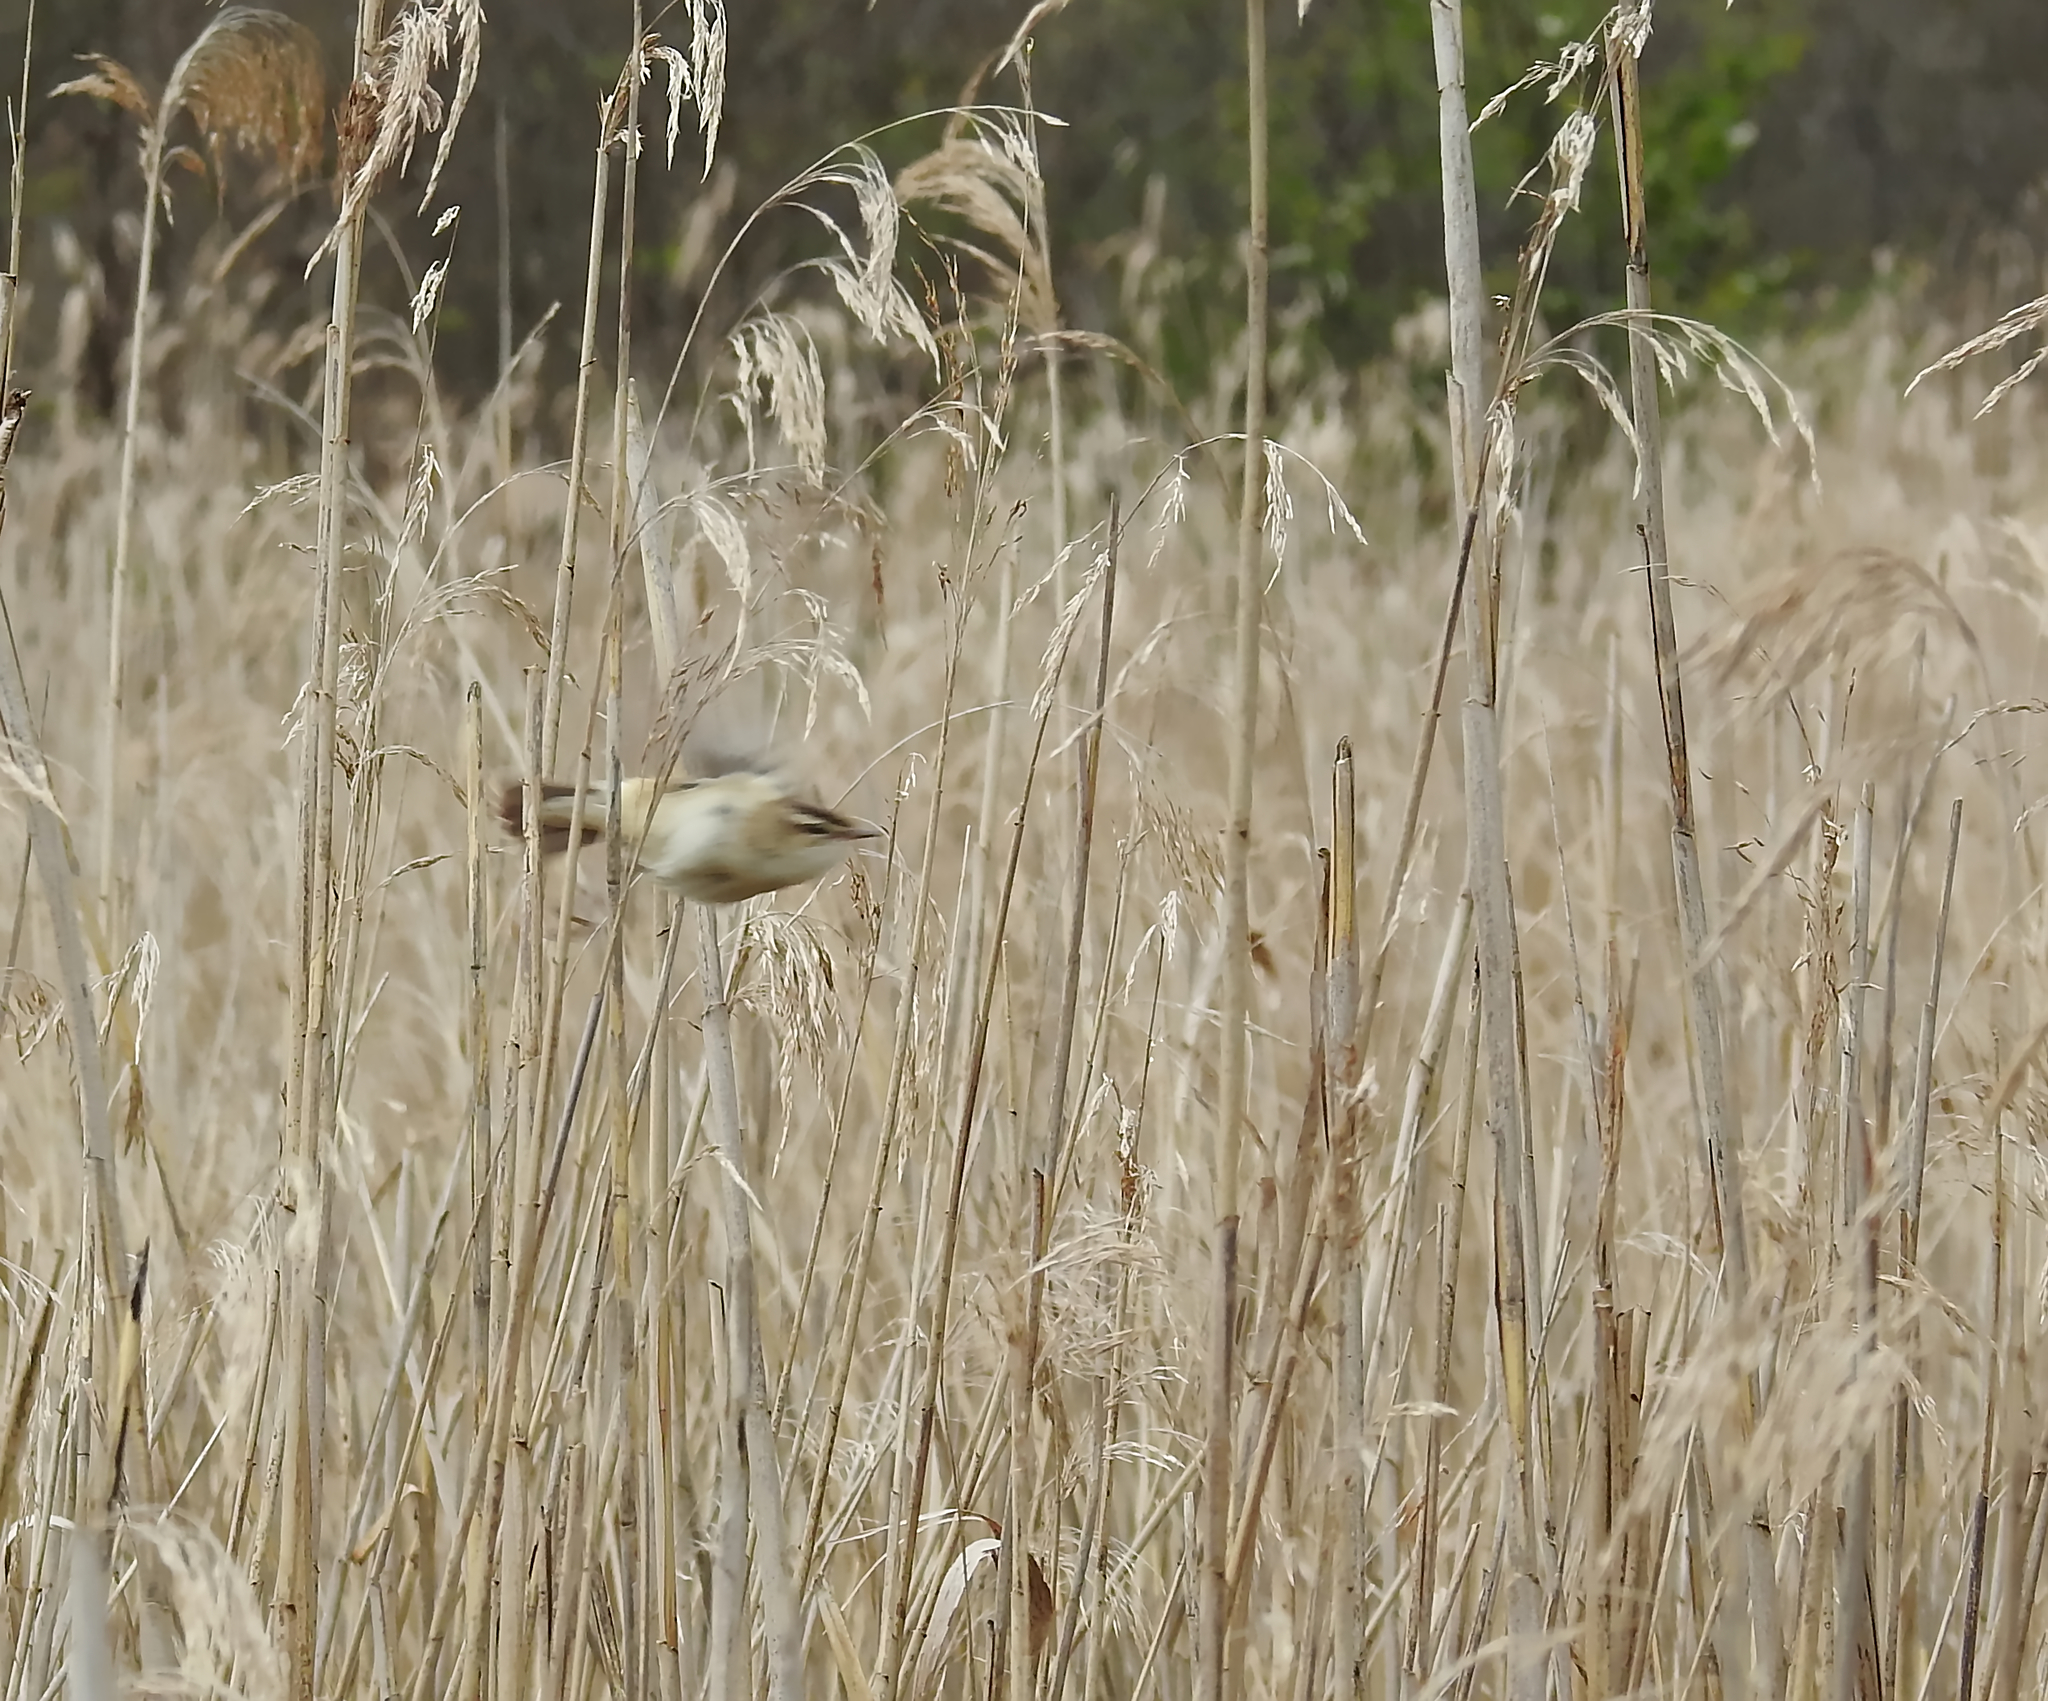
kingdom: Animalia
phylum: Chordata
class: Aves
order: Passeriformes
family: Acrocephalidae
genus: Acrocephalus
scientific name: Acrocephalus schoenobaenus
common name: Sedge warbler
